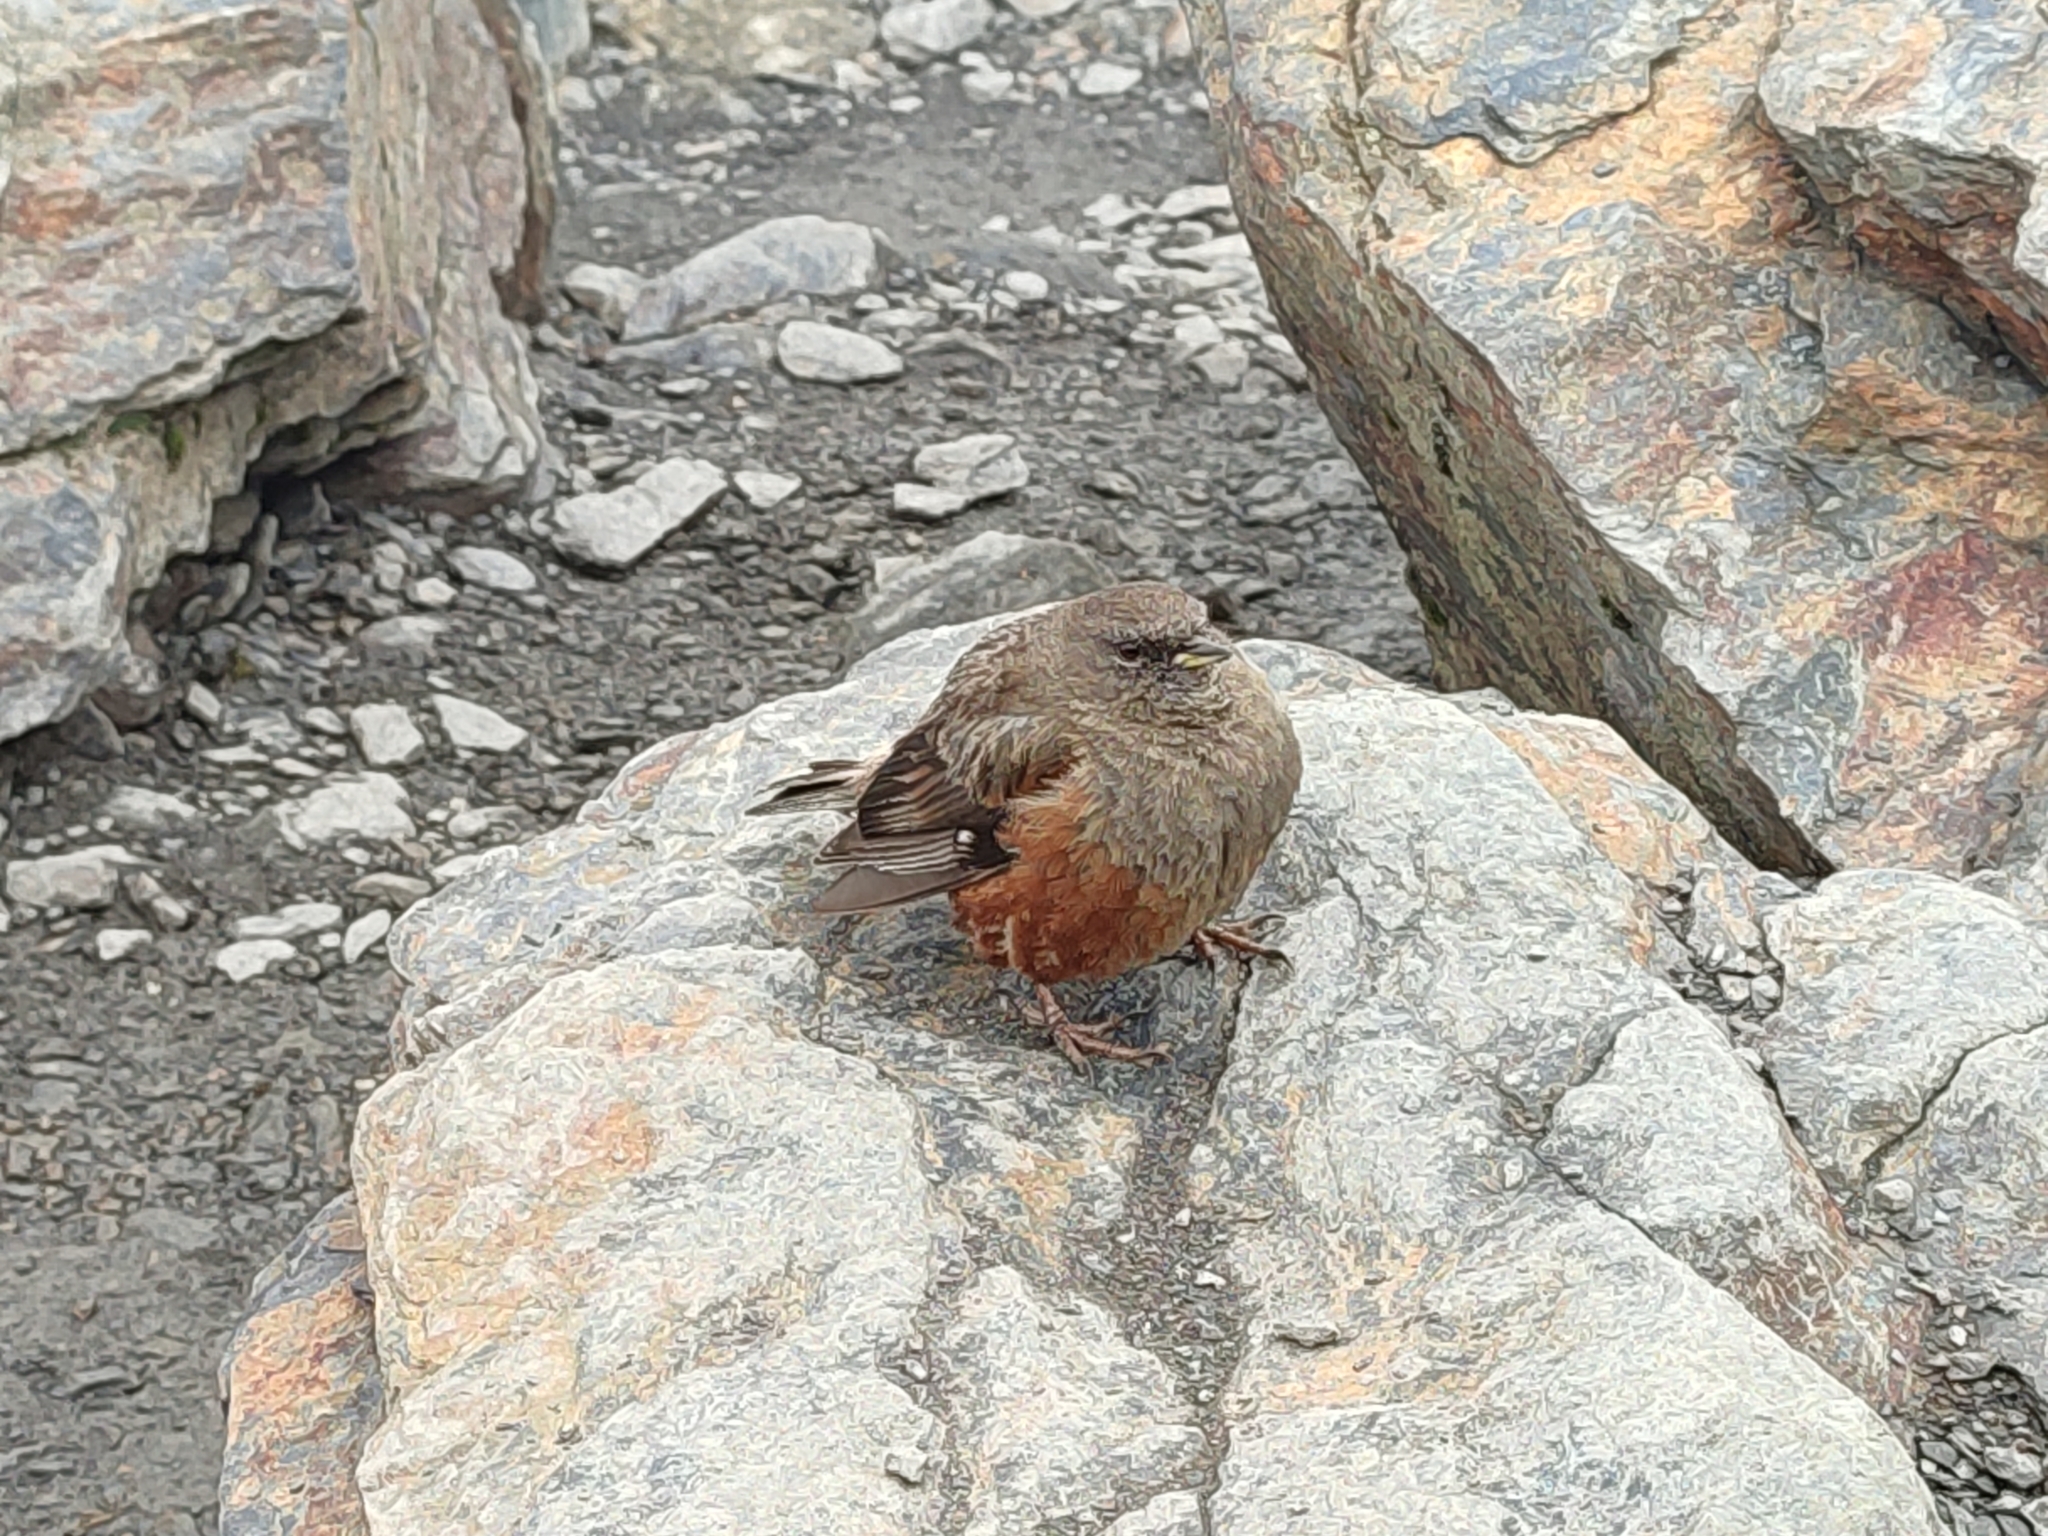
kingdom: Animalia
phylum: Chordata
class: Aves
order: Passeriformes
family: Prunellidae
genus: Prunella
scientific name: Prunella collaris
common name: Alpine accentor
